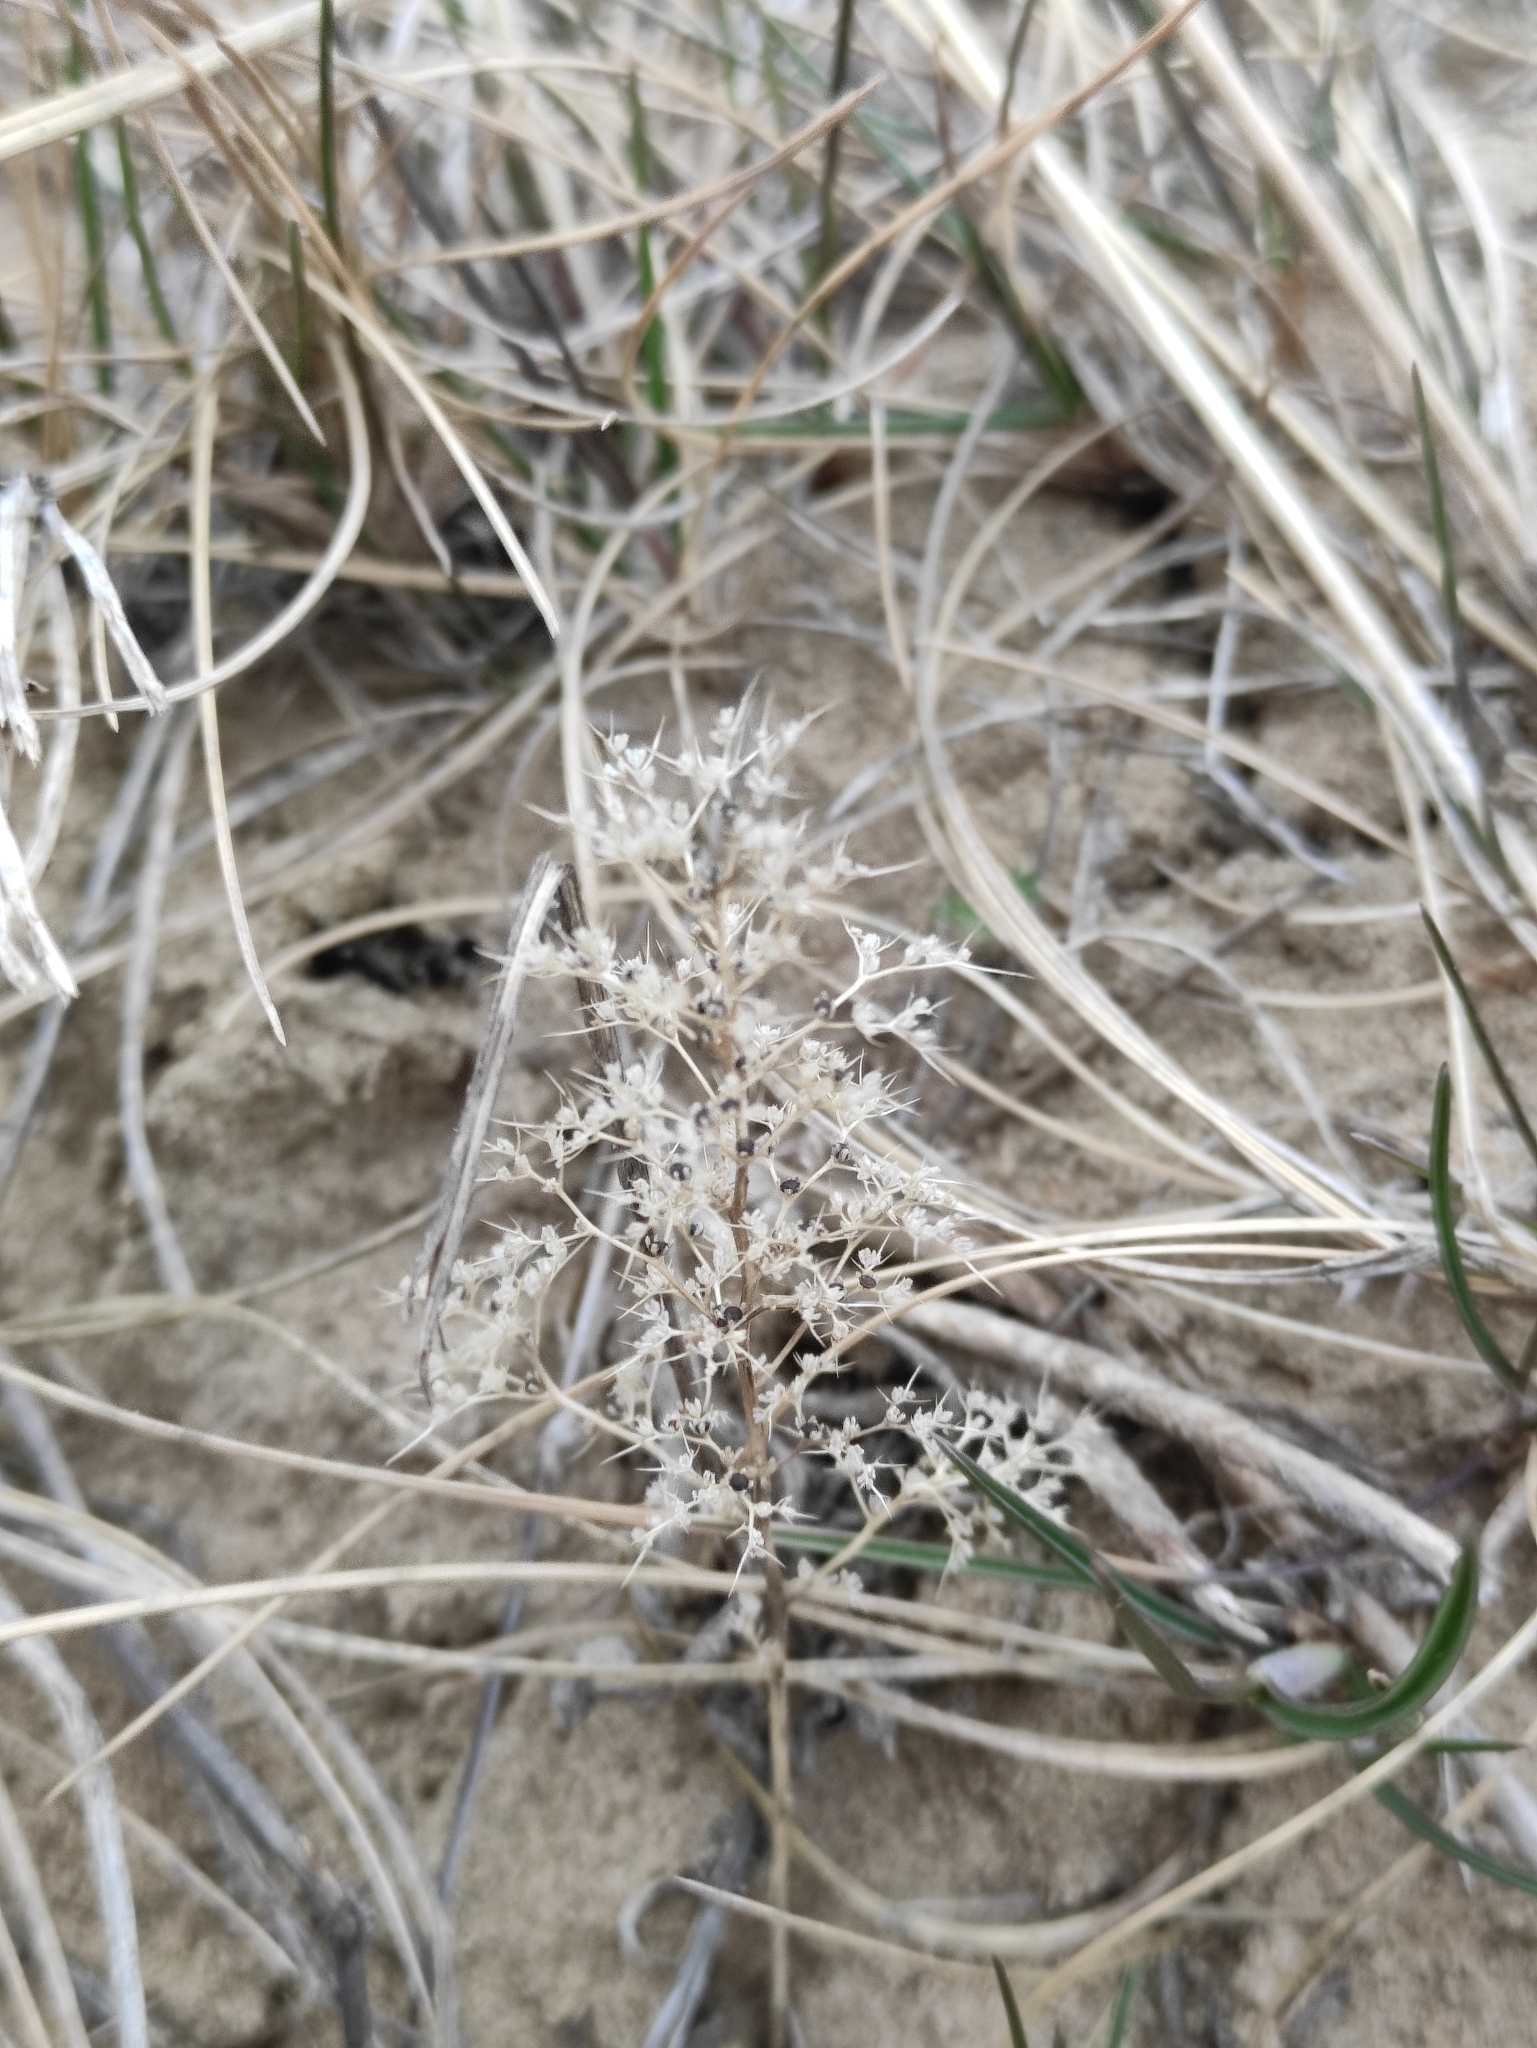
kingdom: Plantae
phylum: Tracheophyta
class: Magnoliopsida
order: Caryophyllales
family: Amaranthaceae
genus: Teloxys
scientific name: Teloxys aristata
